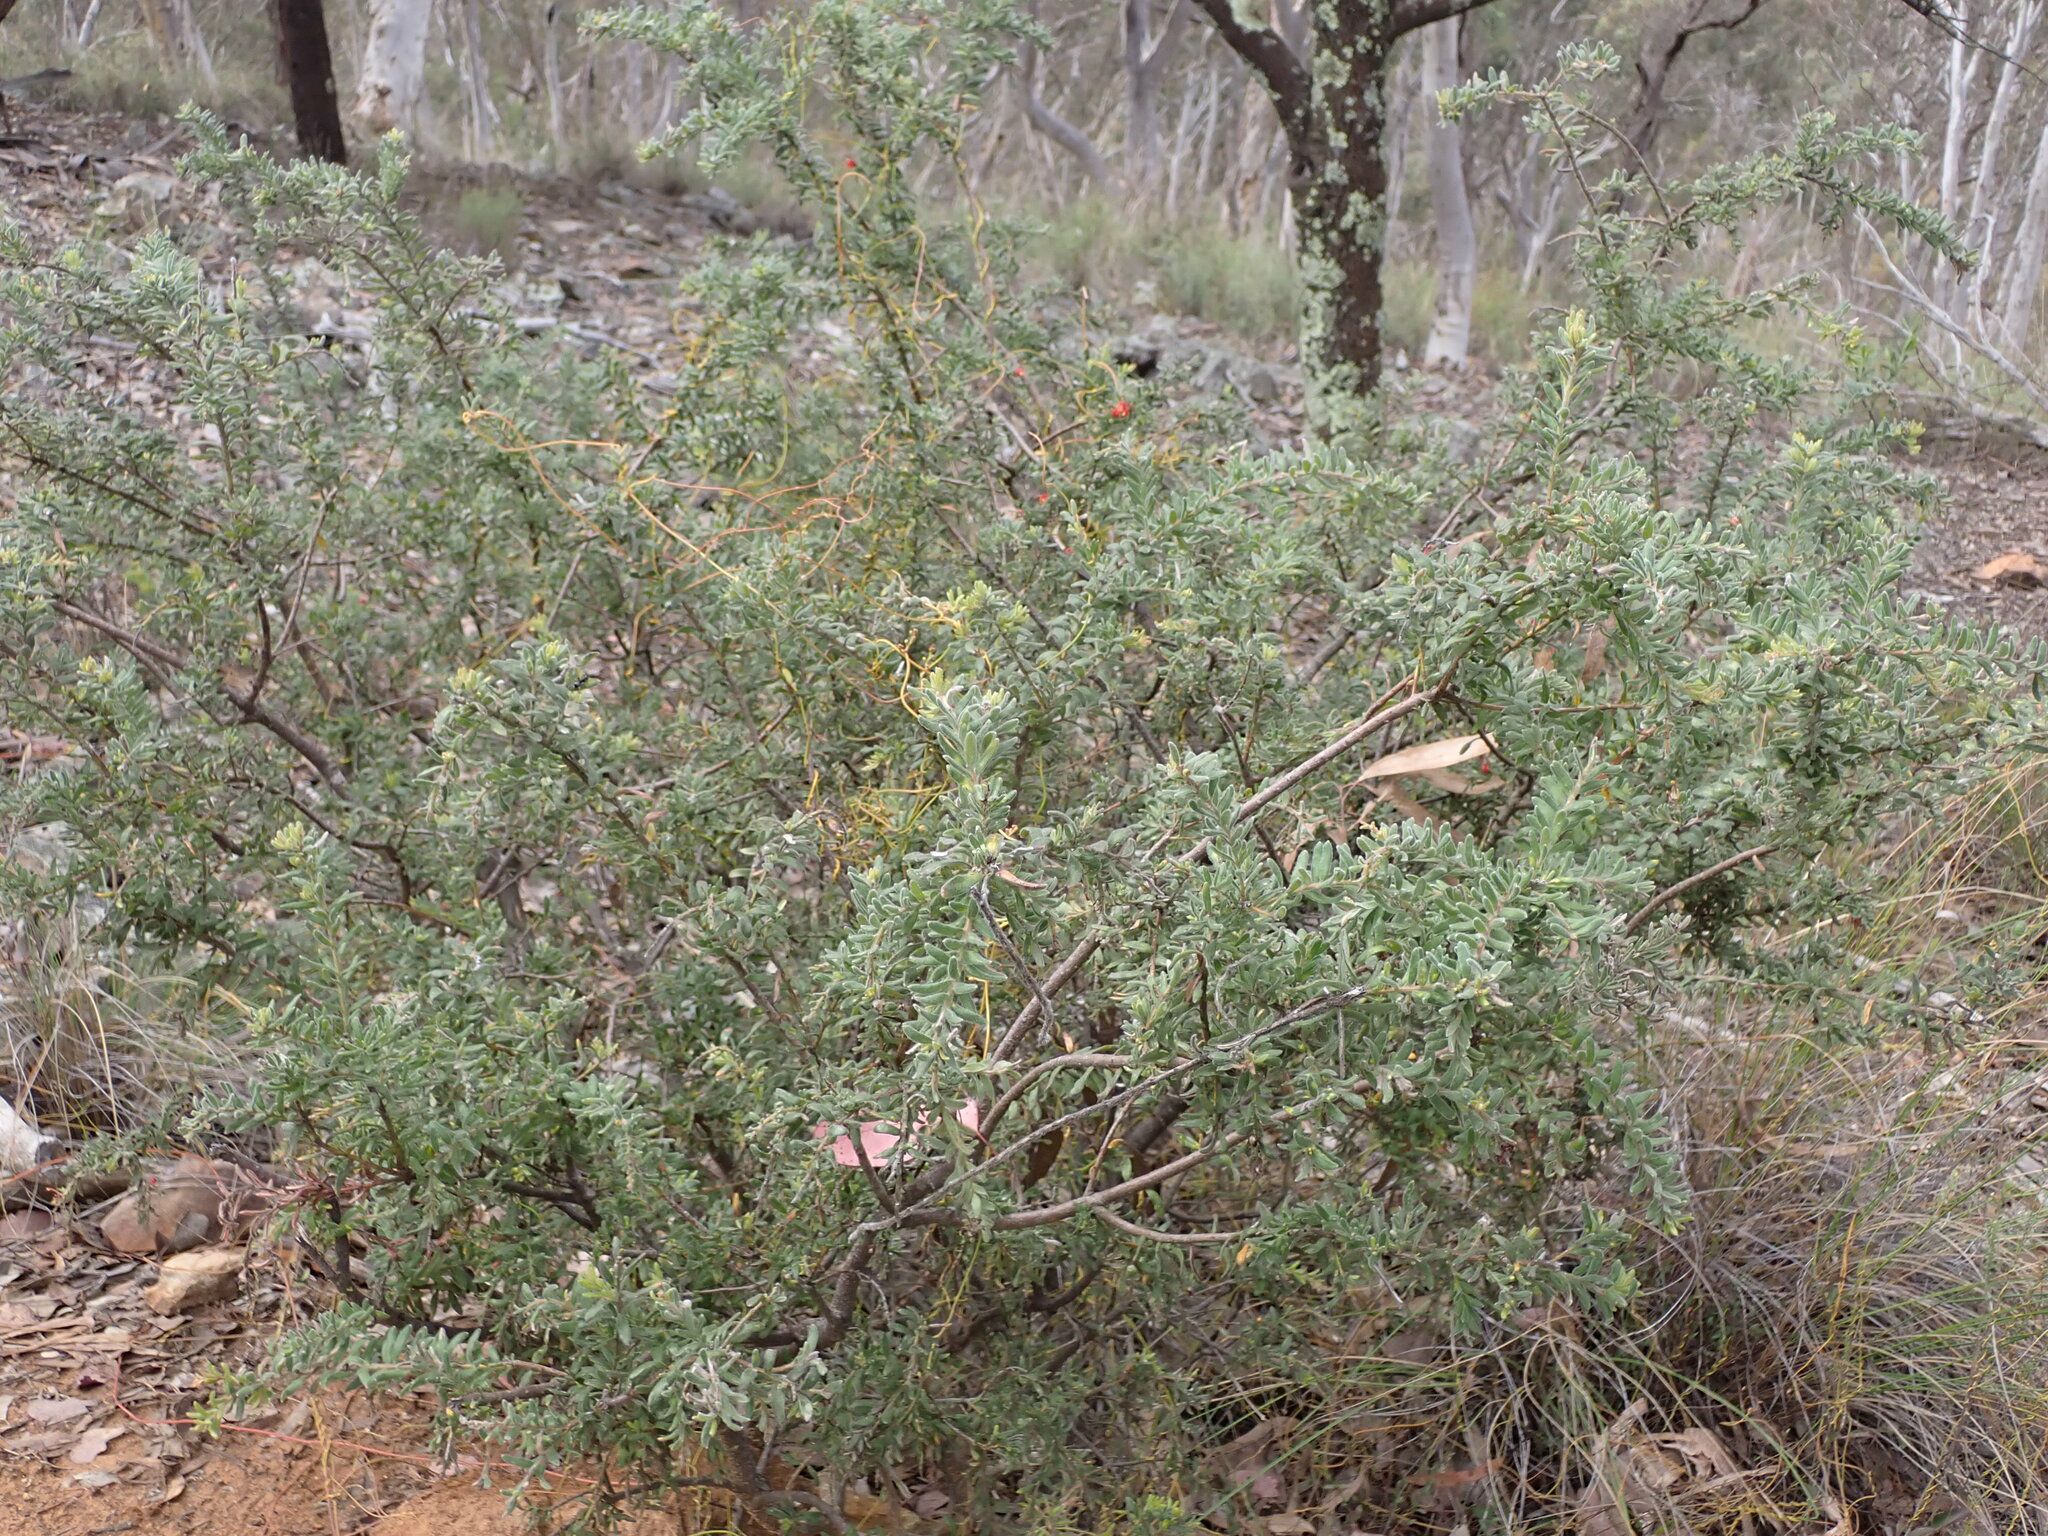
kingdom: Plantae
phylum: Tracheophyta
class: Magnoliopsida
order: Proteales
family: Proteaceae
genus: Grevillea
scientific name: Grevillea alpina
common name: Catclaws grevillea
